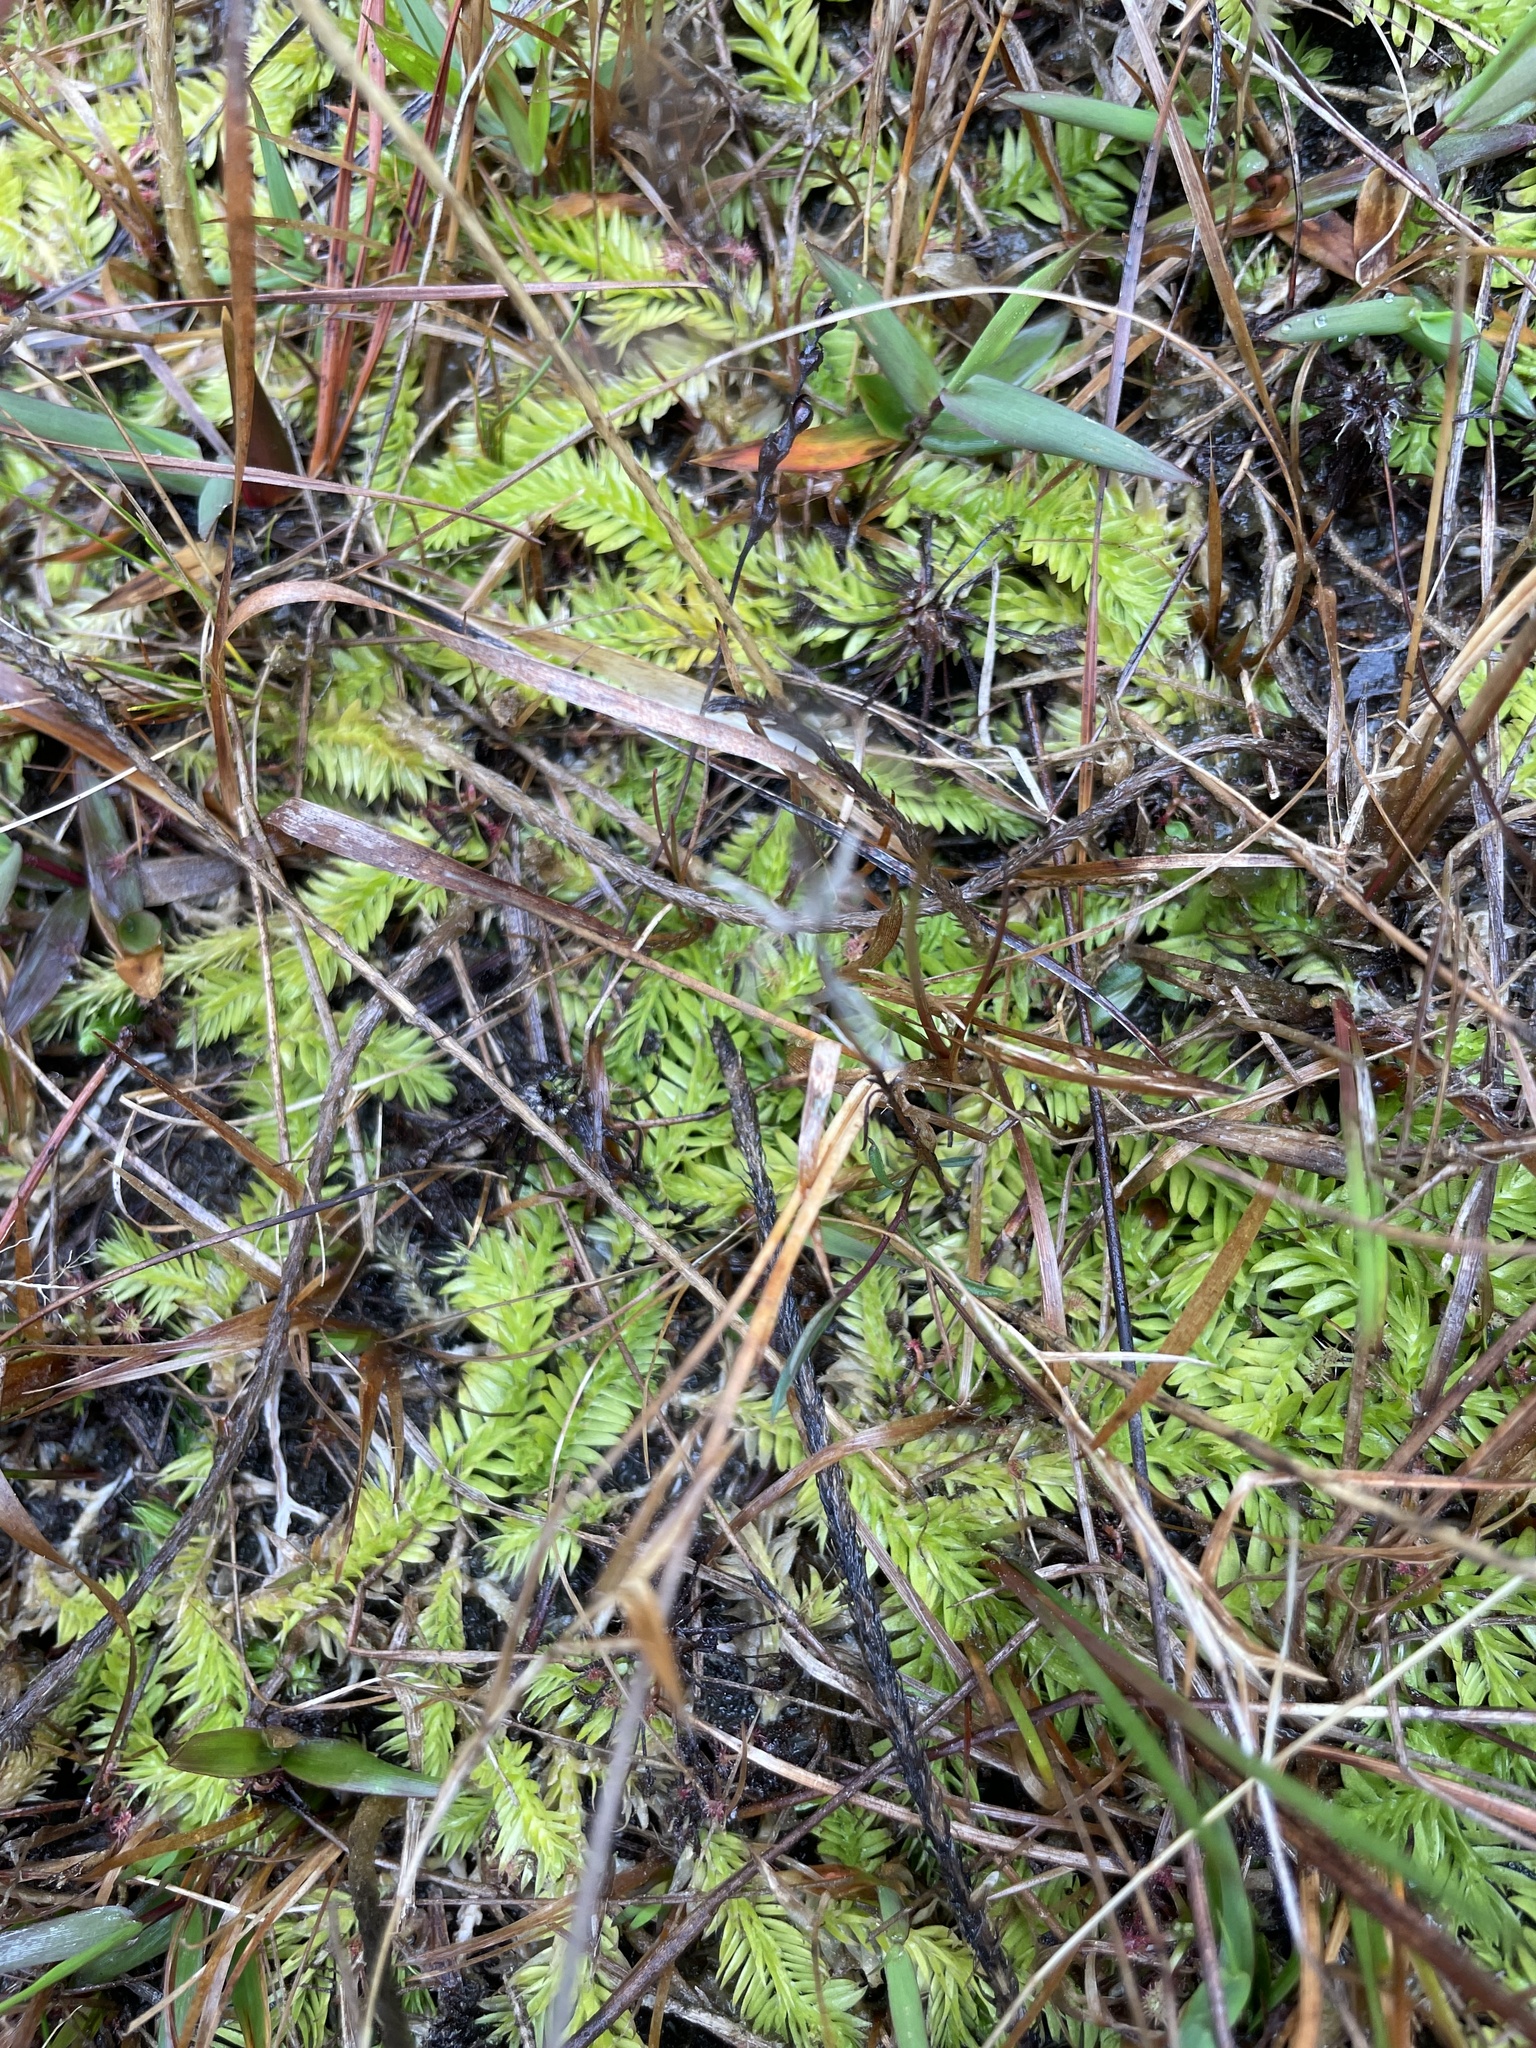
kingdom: Plantae
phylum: Tracheophyta
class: Lycopodiopsida
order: Lycopodiales
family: Lycopodiaceae
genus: Pseudolycopodiella
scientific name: Pseudolycopodiella caroliniana
